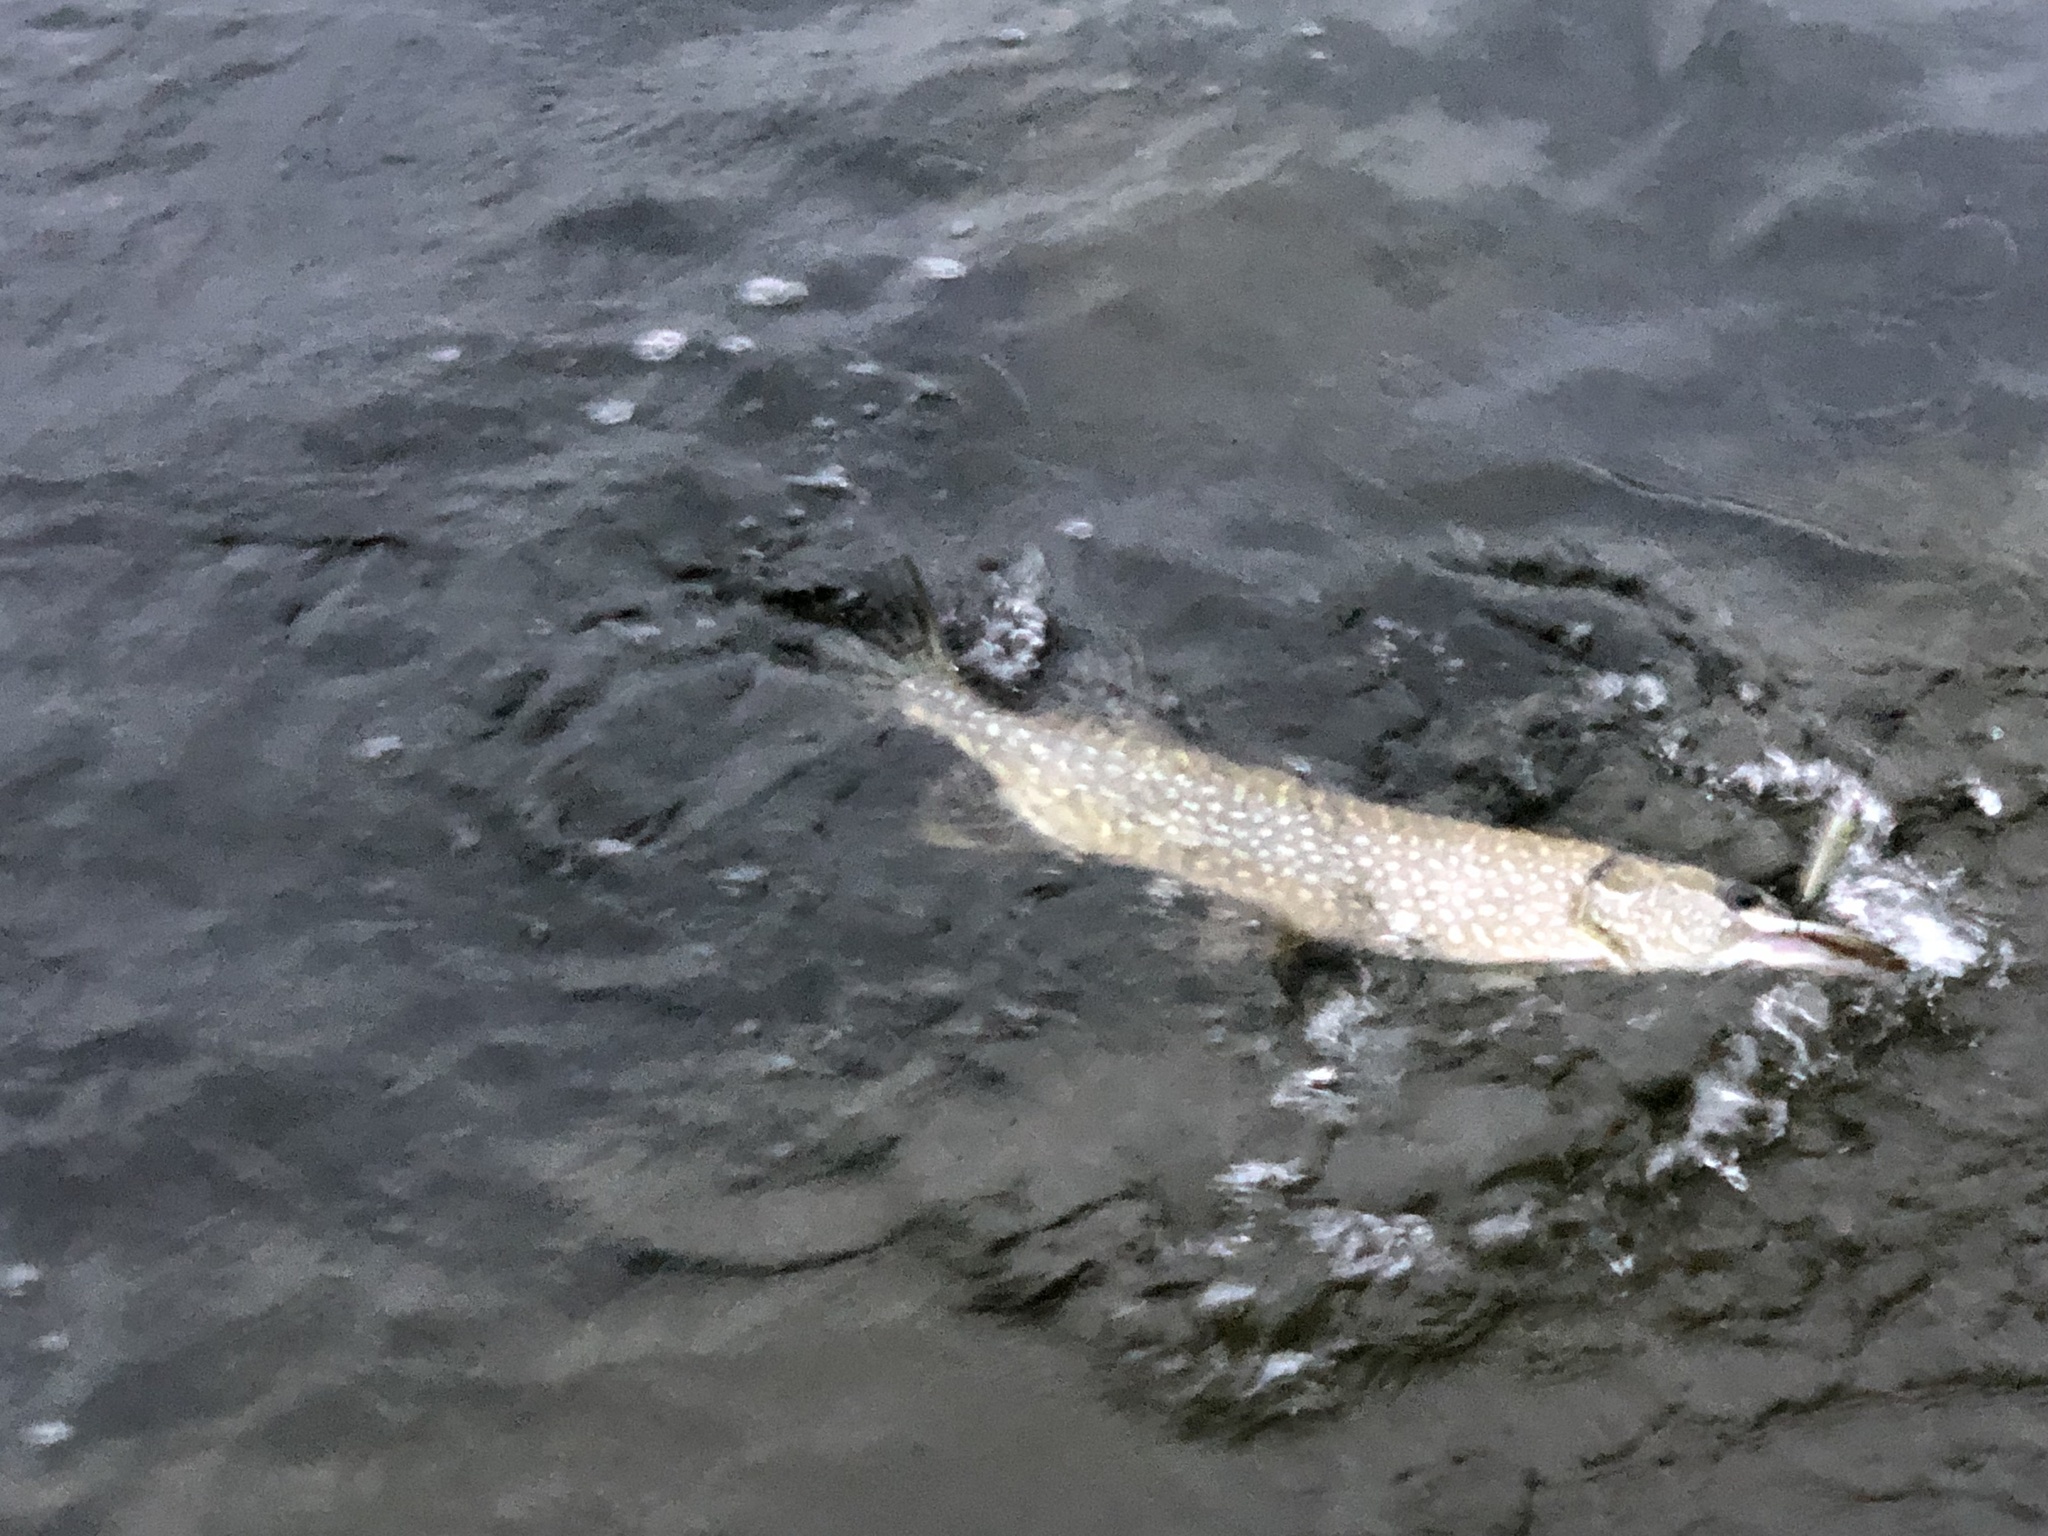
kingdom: Animalia
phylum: Chordata
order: Esociformes
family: Esocidae
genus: Esox
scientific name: Esox lucius
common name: Northern pike
